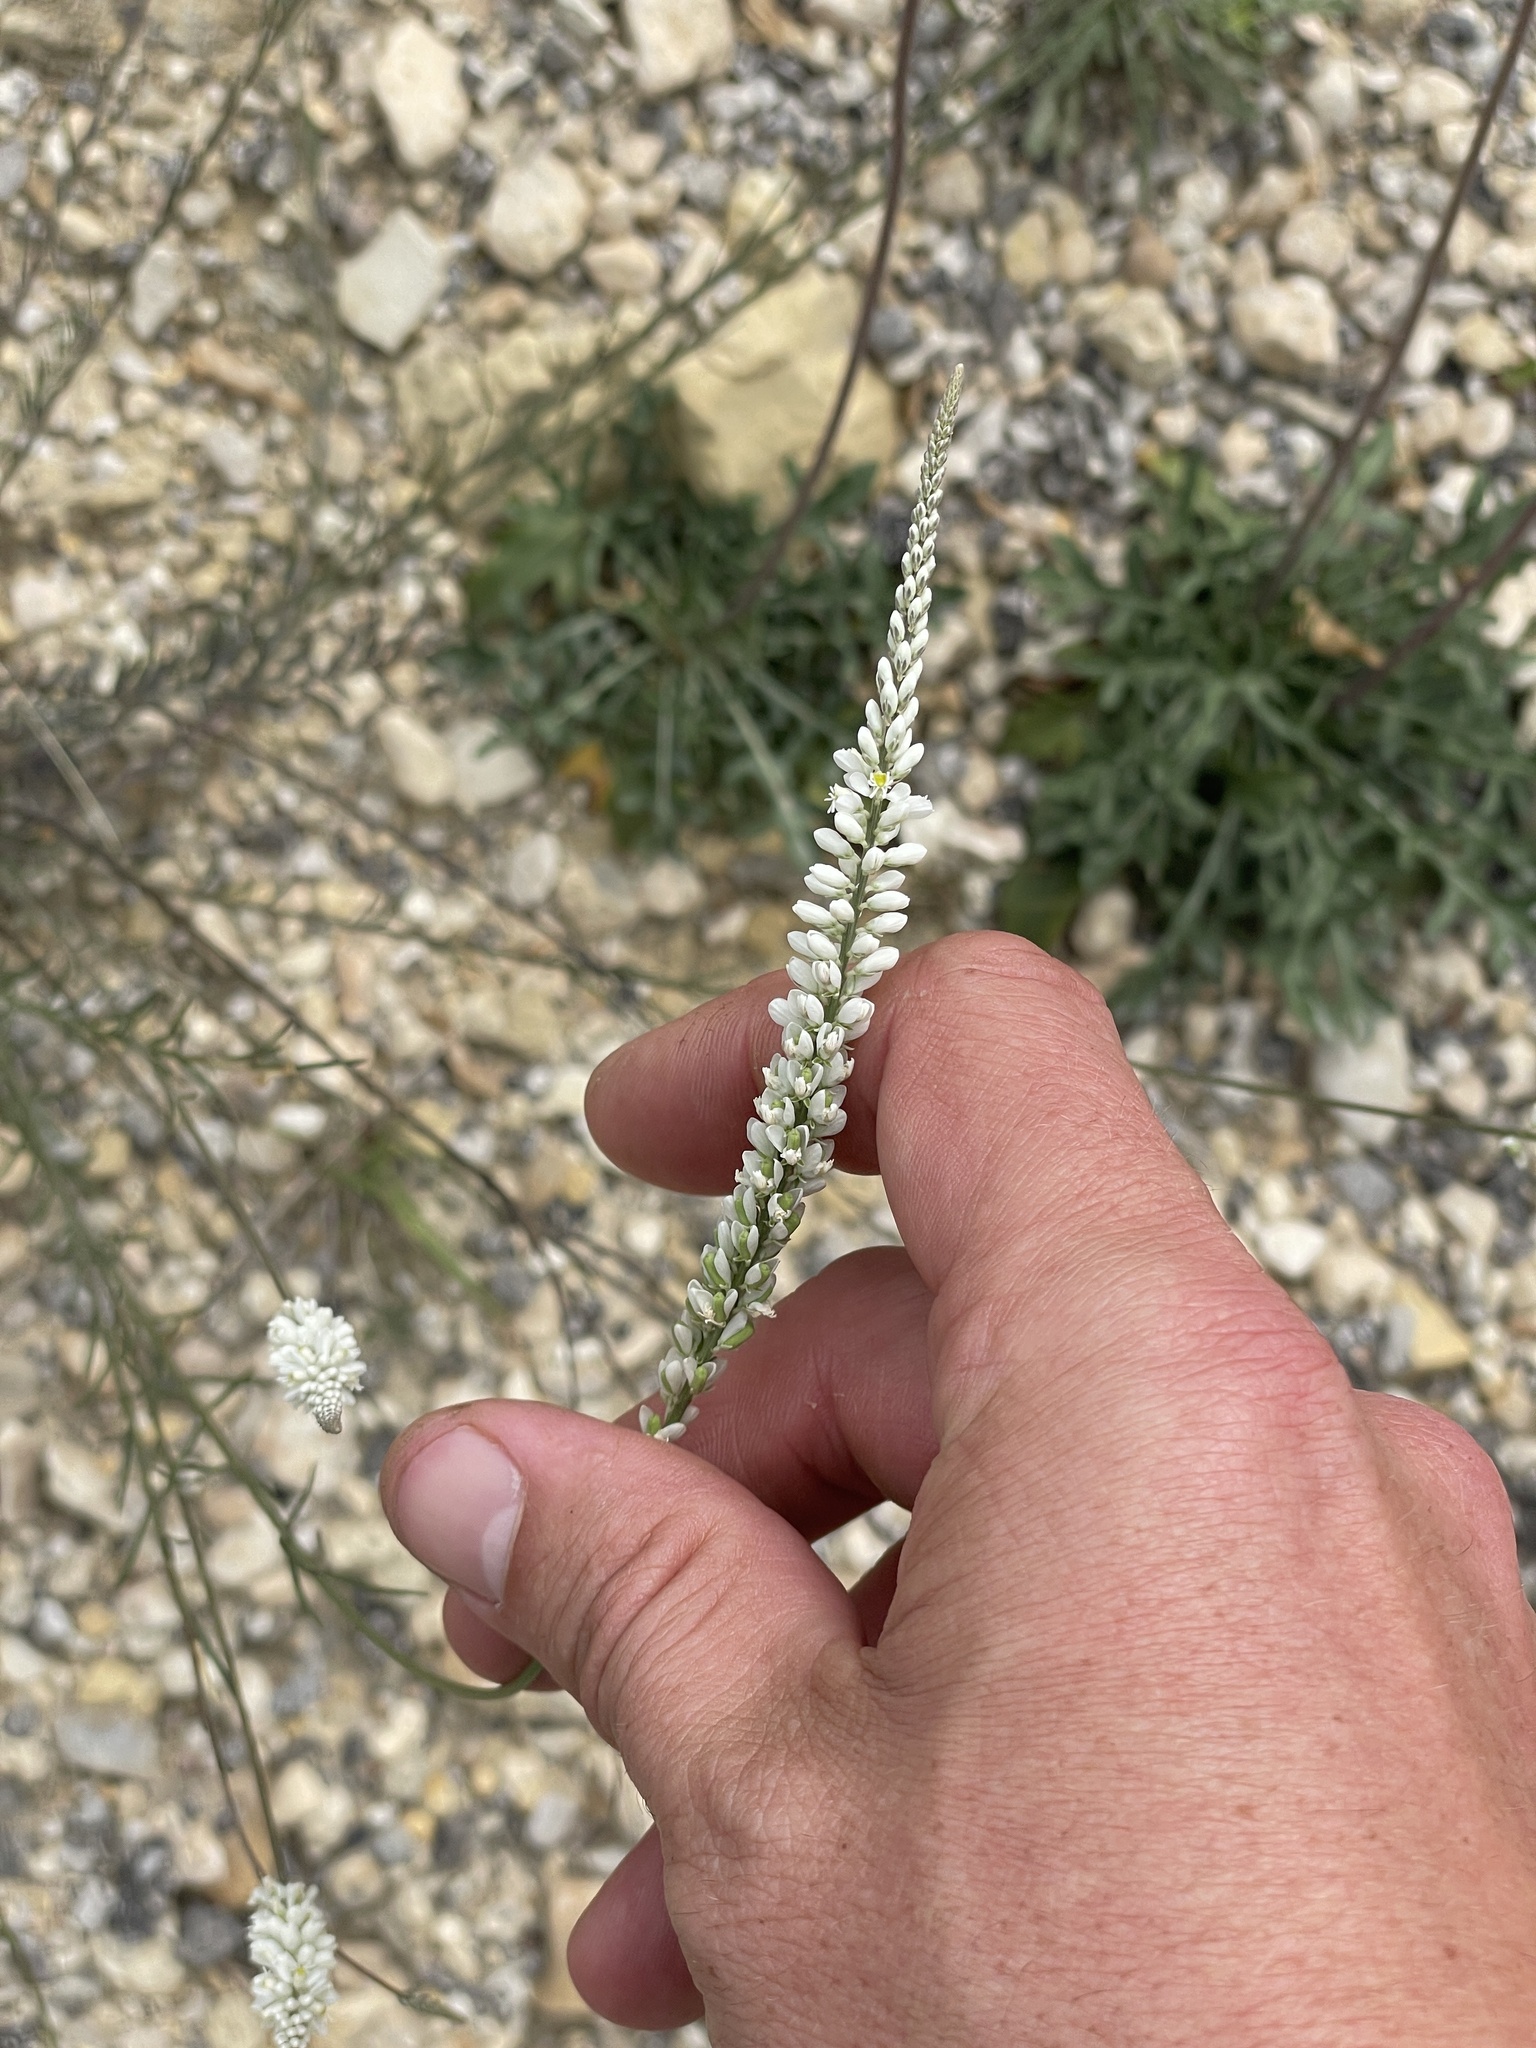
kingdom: Plantae
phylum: Tracheophyta
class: Magnoliopsida
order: Fabales
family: Polygalaceae
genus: Polygala
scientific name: Polygala alba
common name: White milkwort
